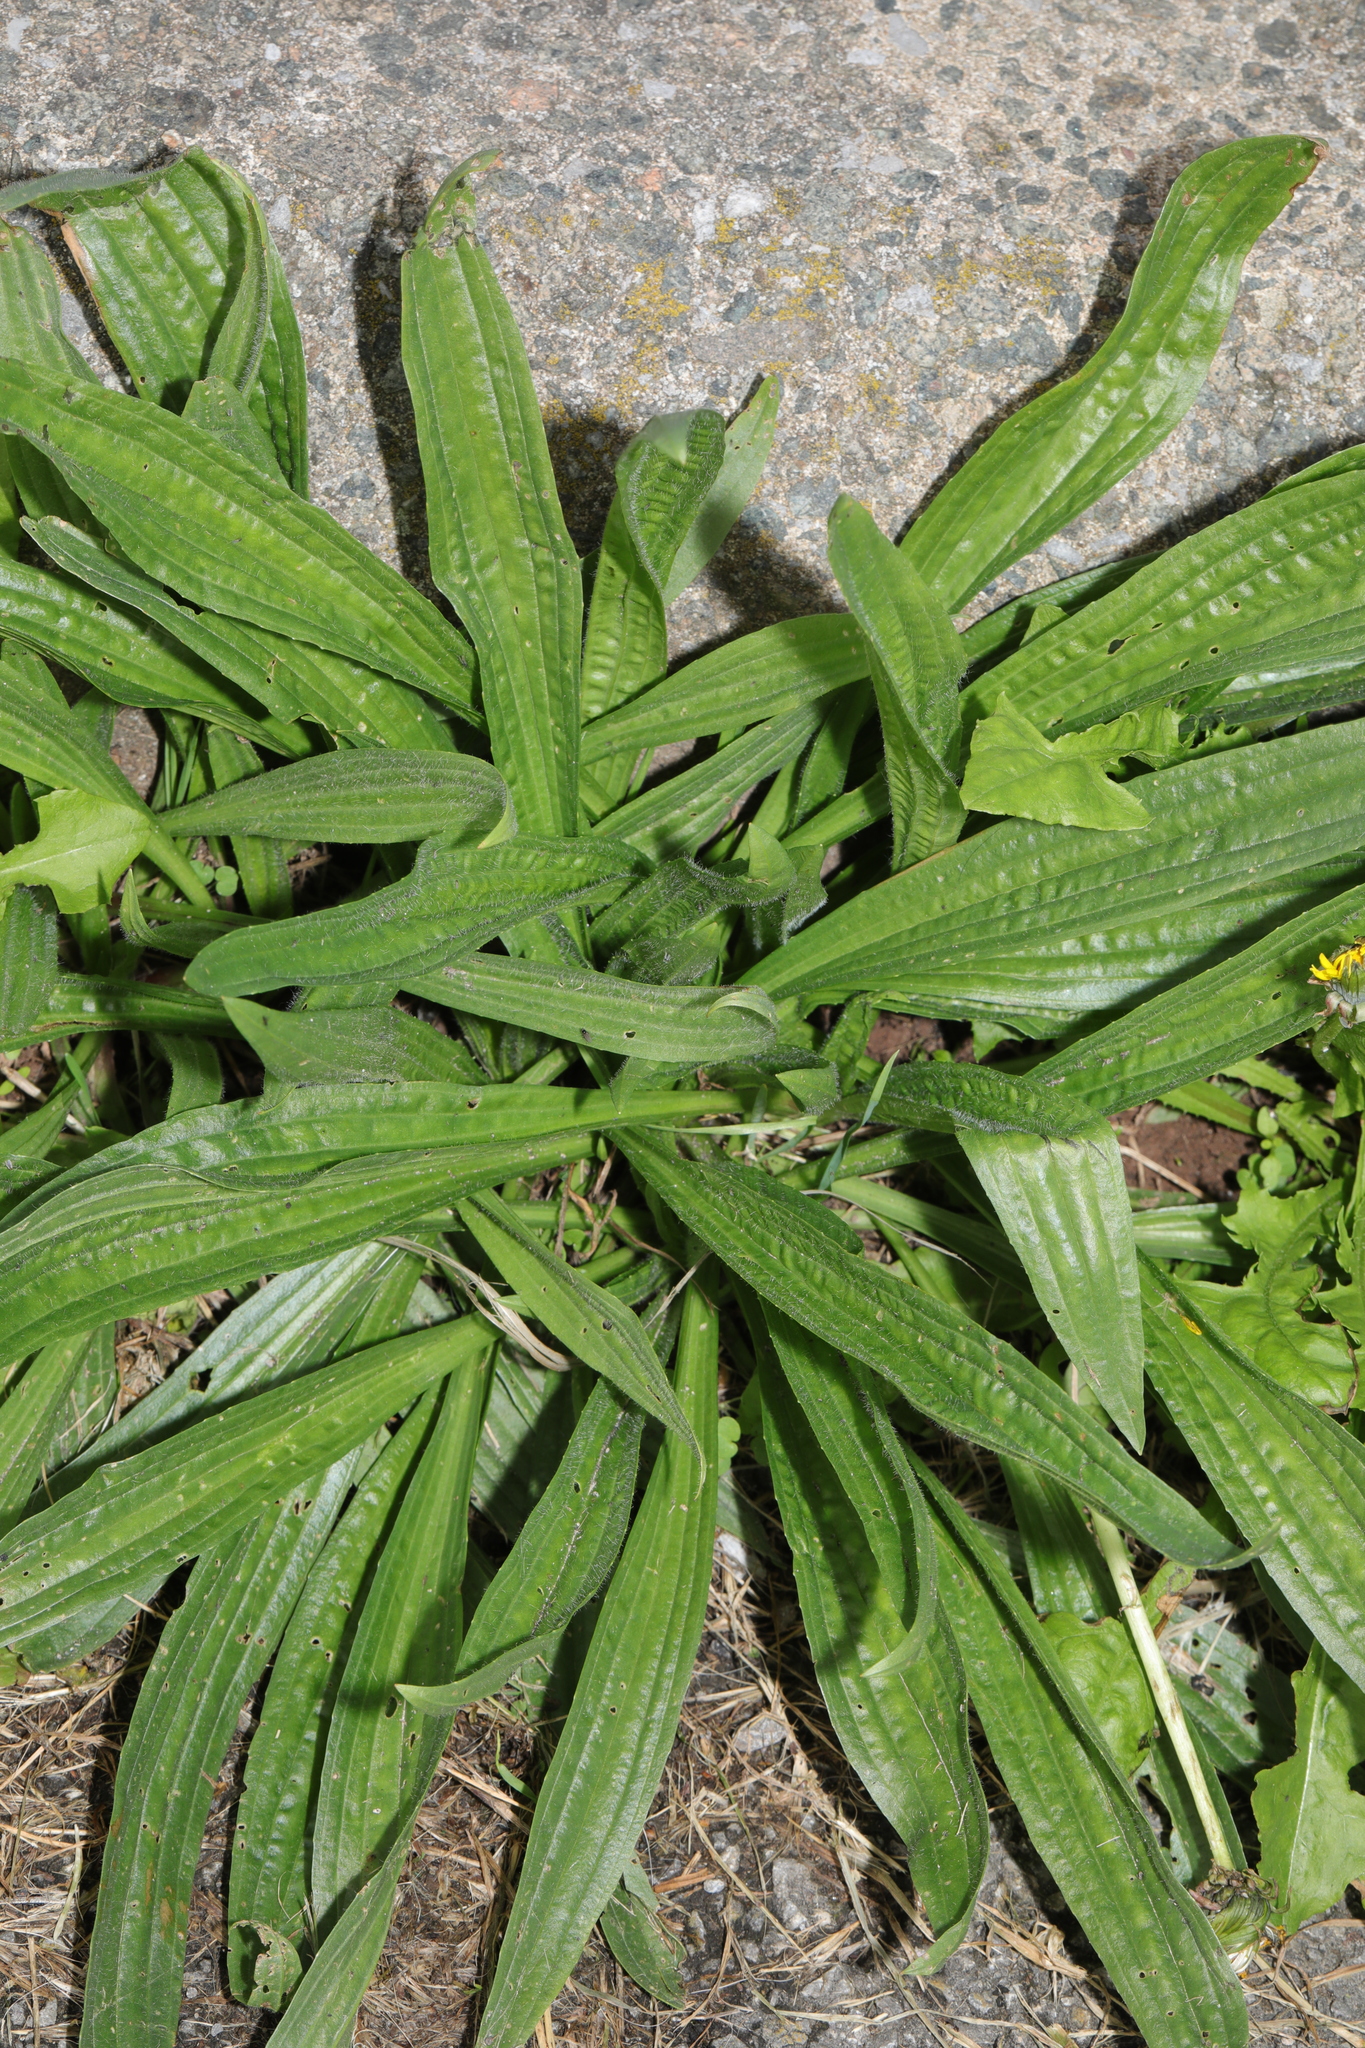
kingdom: Plantae
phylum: Tracheophyta
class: Magnoliopsida
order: Lamiales
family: Plantaginaceae
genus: Plantago
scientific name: Plantago lanceolata
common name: Ribwort plantain
